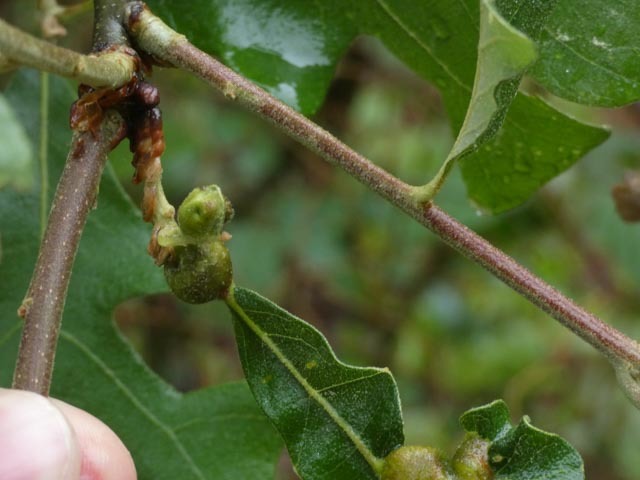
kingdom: Animalia
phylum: Arthropoda
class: Insecta
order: Hymenoptera
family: Cynipidae
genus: Andricus
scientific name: Andricus
